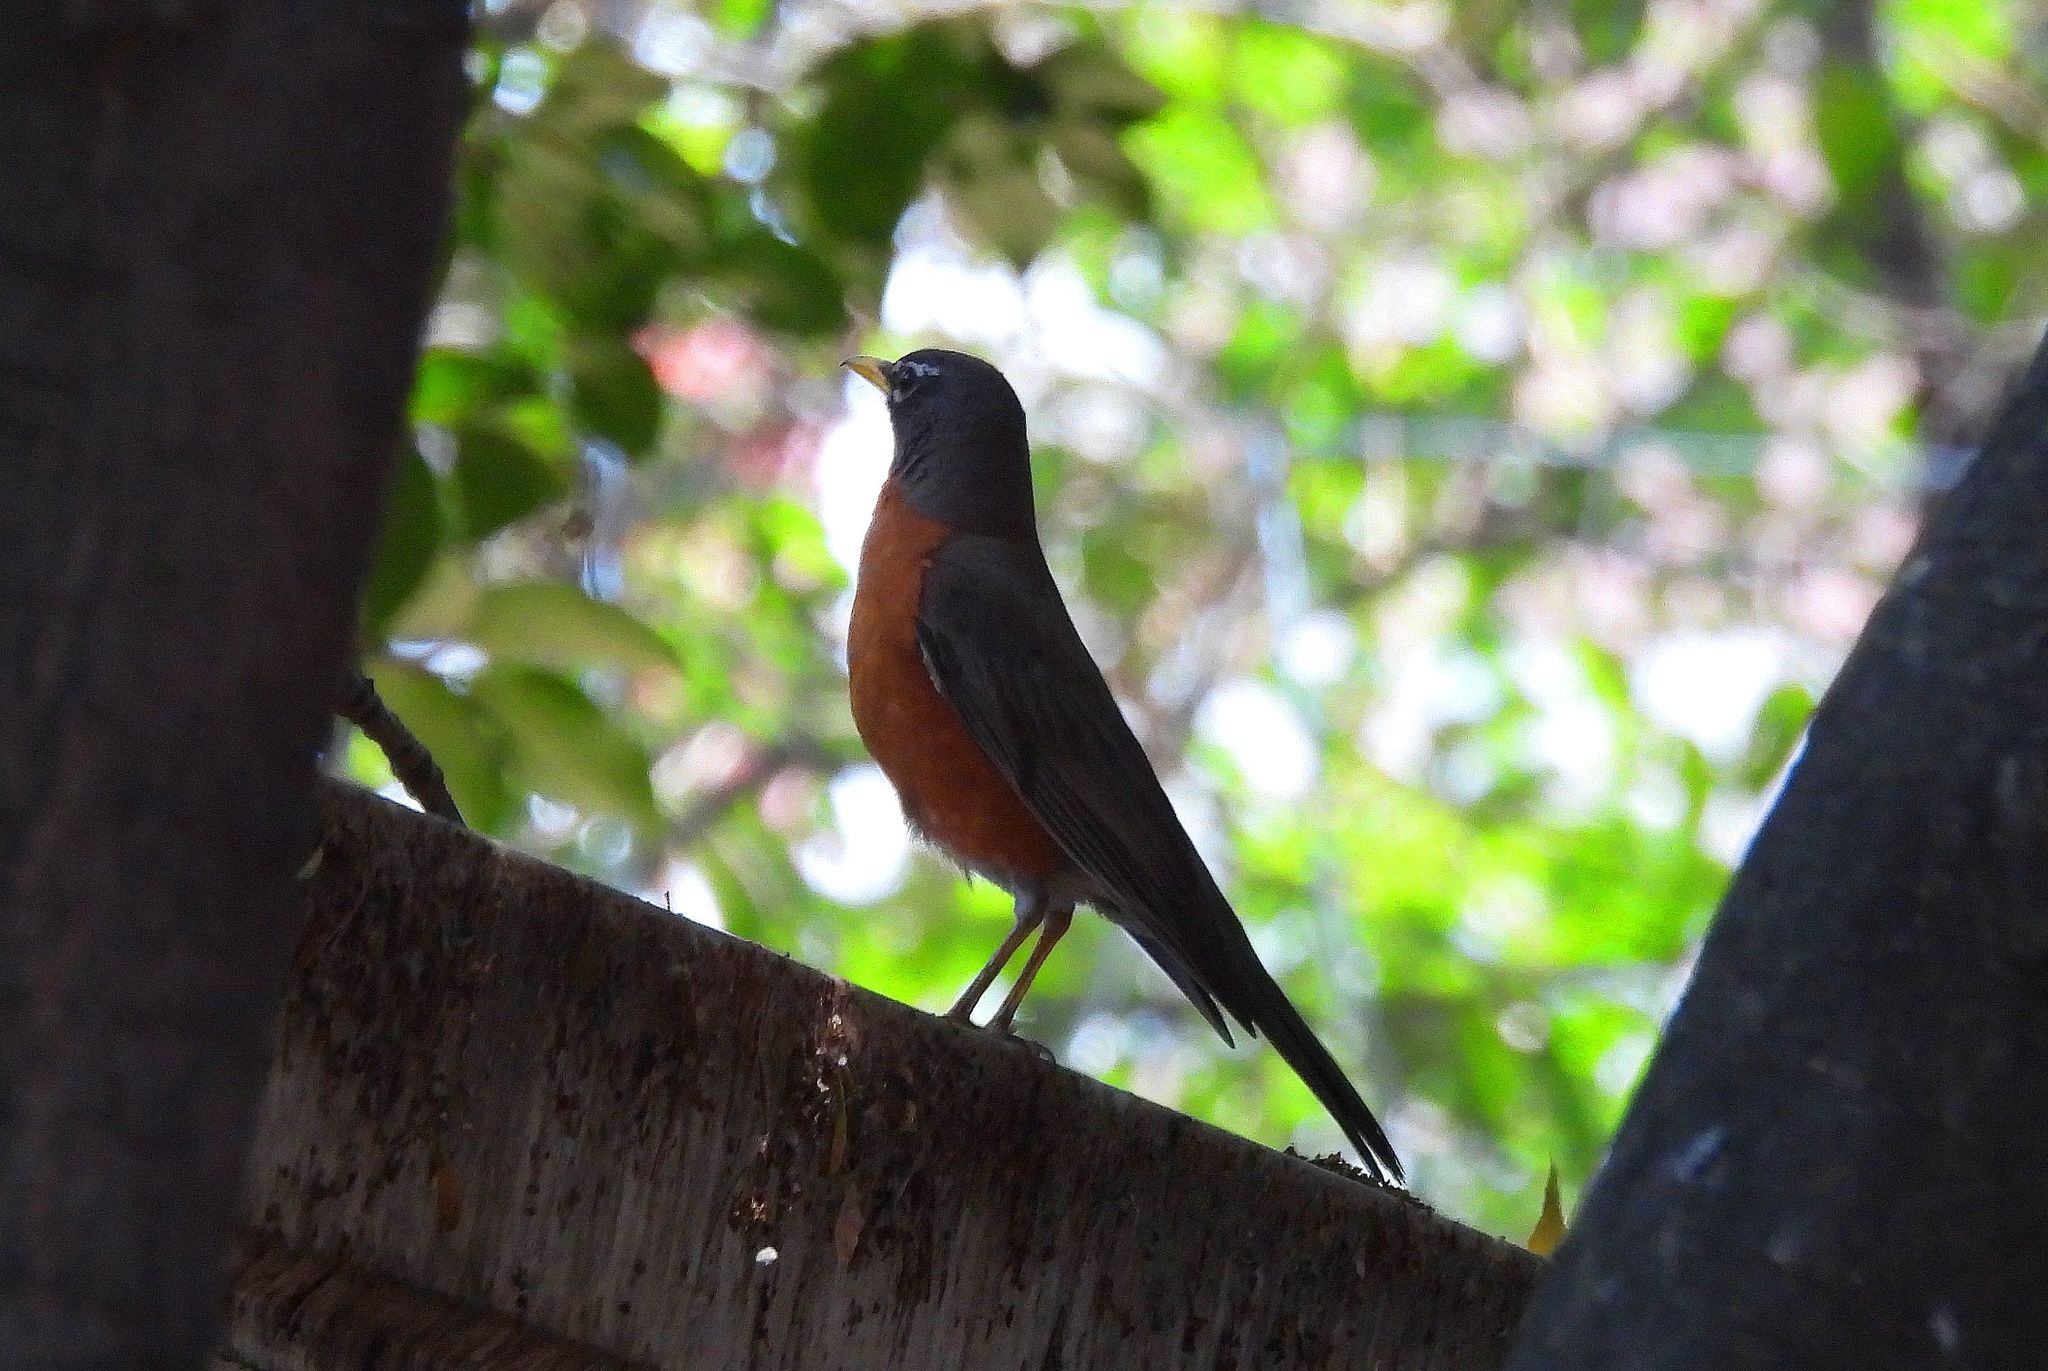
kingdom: Animalia
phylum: Chordata
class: Aves
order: Passeriformes
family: Turdidae
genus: Turdus
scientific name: Turdus migratorius
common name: American robin
